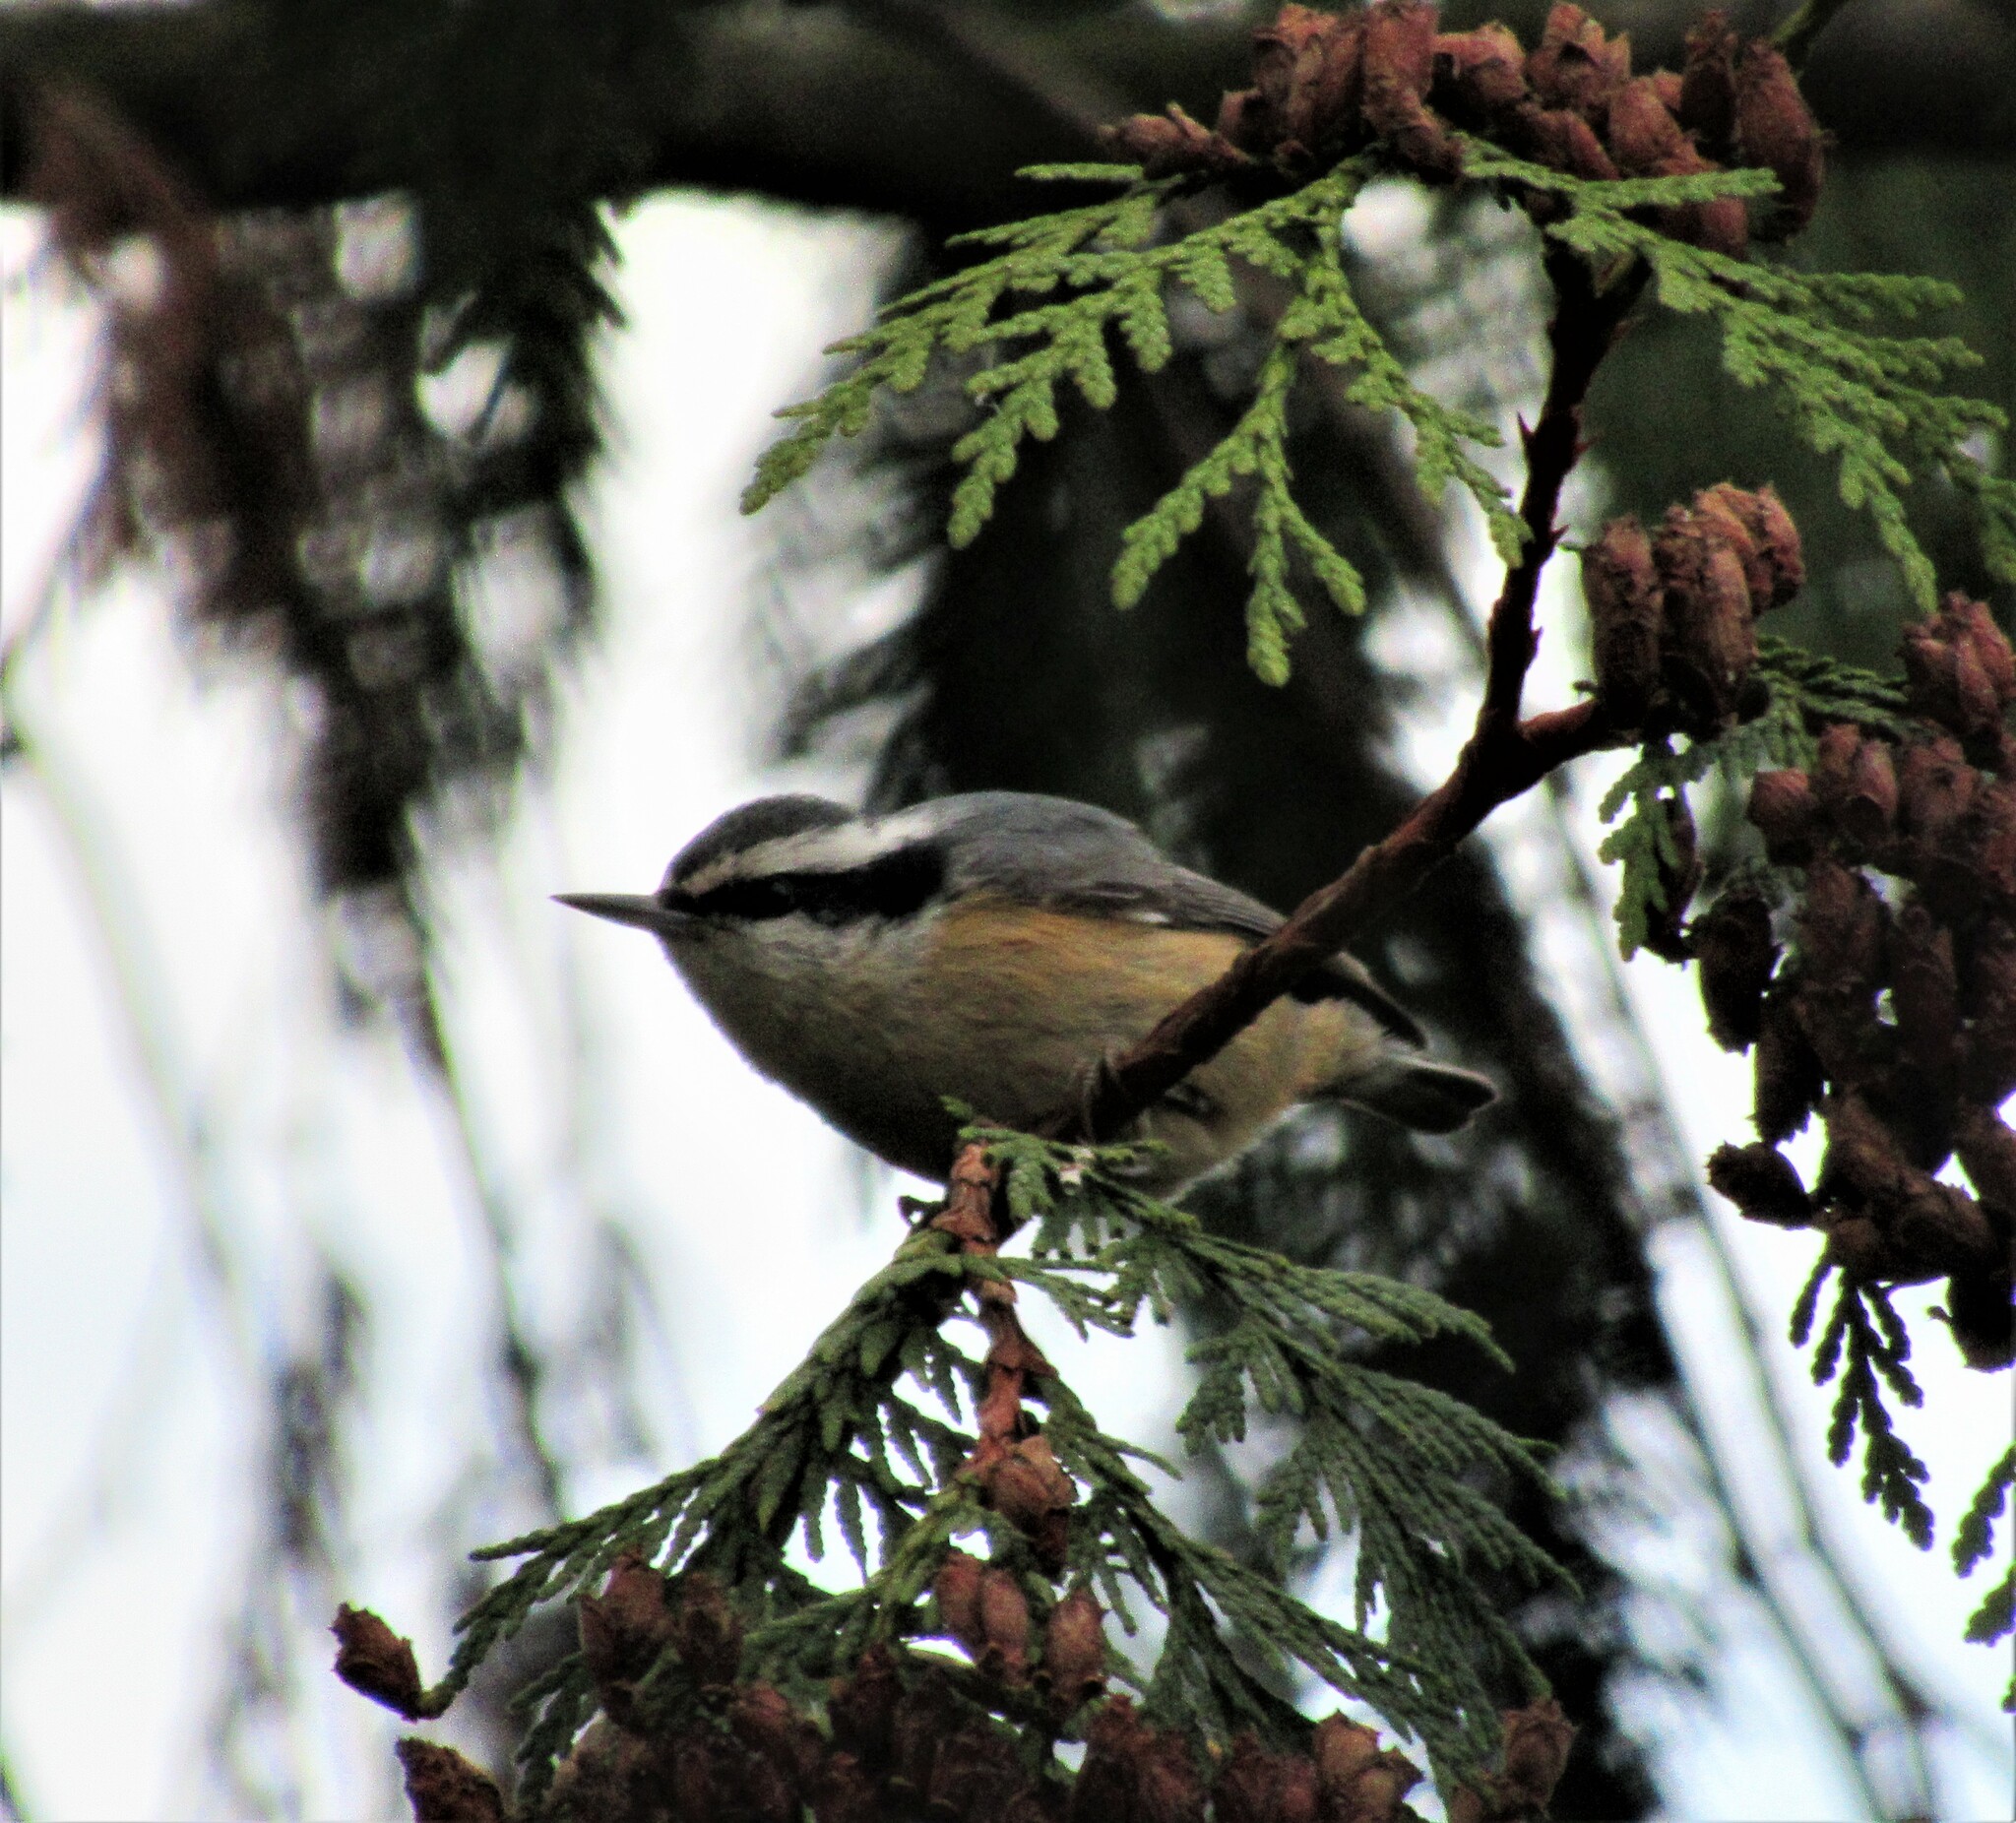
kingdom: Animalia
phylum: Chordata
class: Aves
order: Passeriformes
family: Sittidae
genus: Sitta
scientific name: Sitta canadensis
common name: Red-breasted nuthatch
